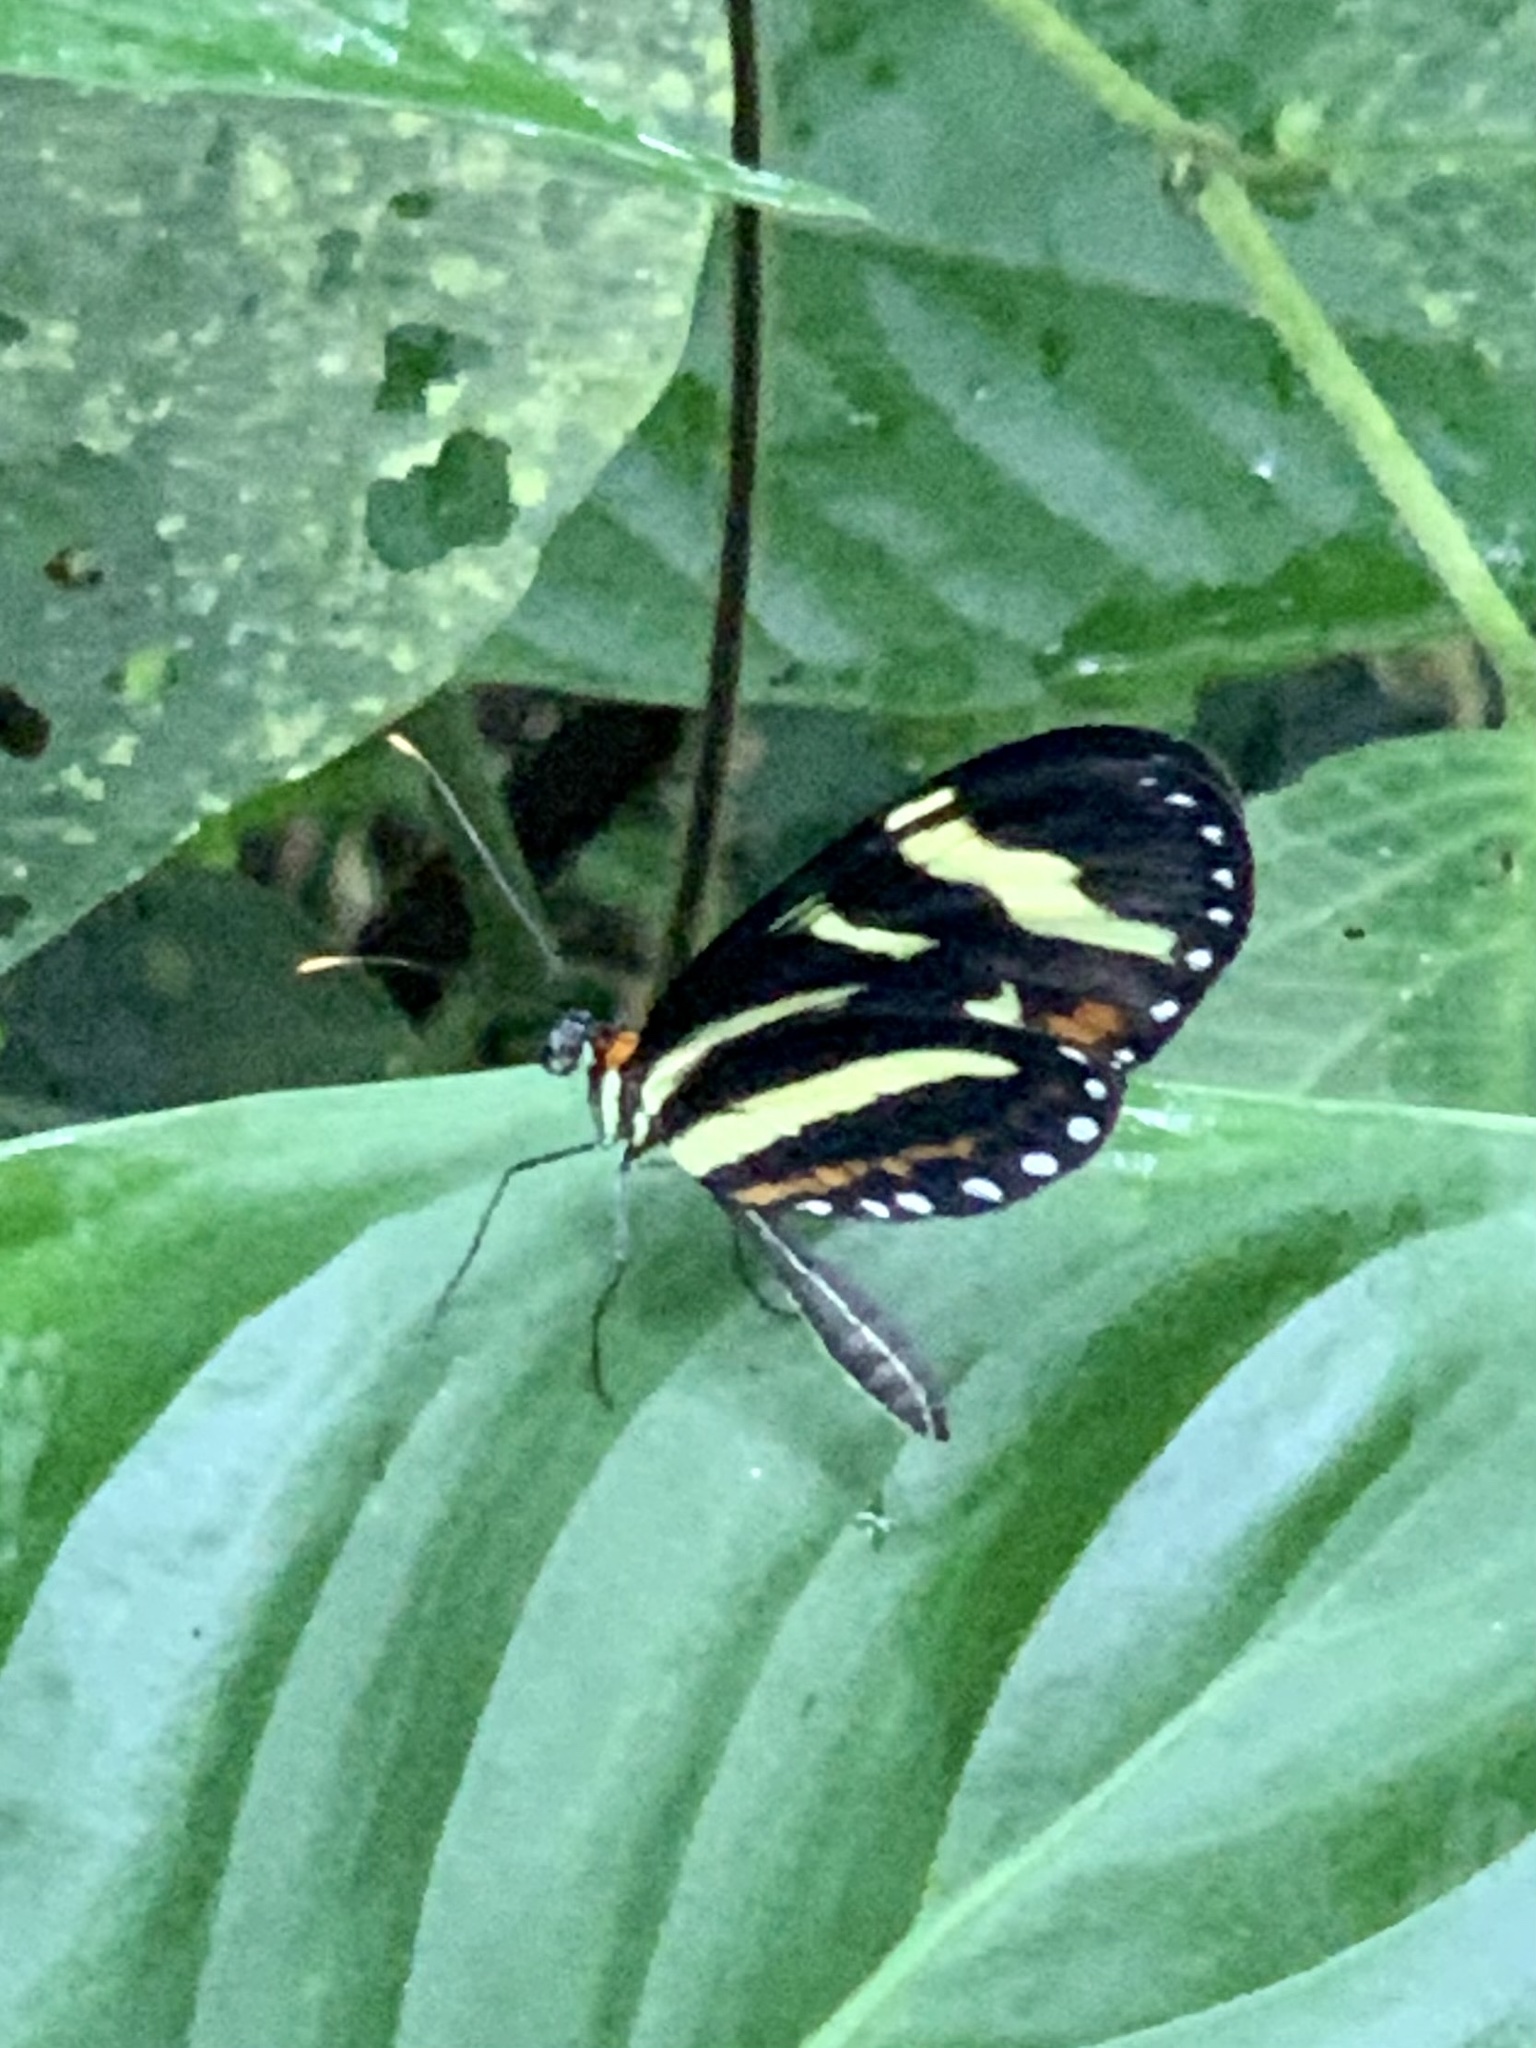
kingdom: Animalia
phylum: Arthropoda
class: Insecta
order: Lepidoptera
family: Nymphalidae
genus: Mechanitis
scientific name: Mechanitis menapis
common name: Menapis tigerwing
